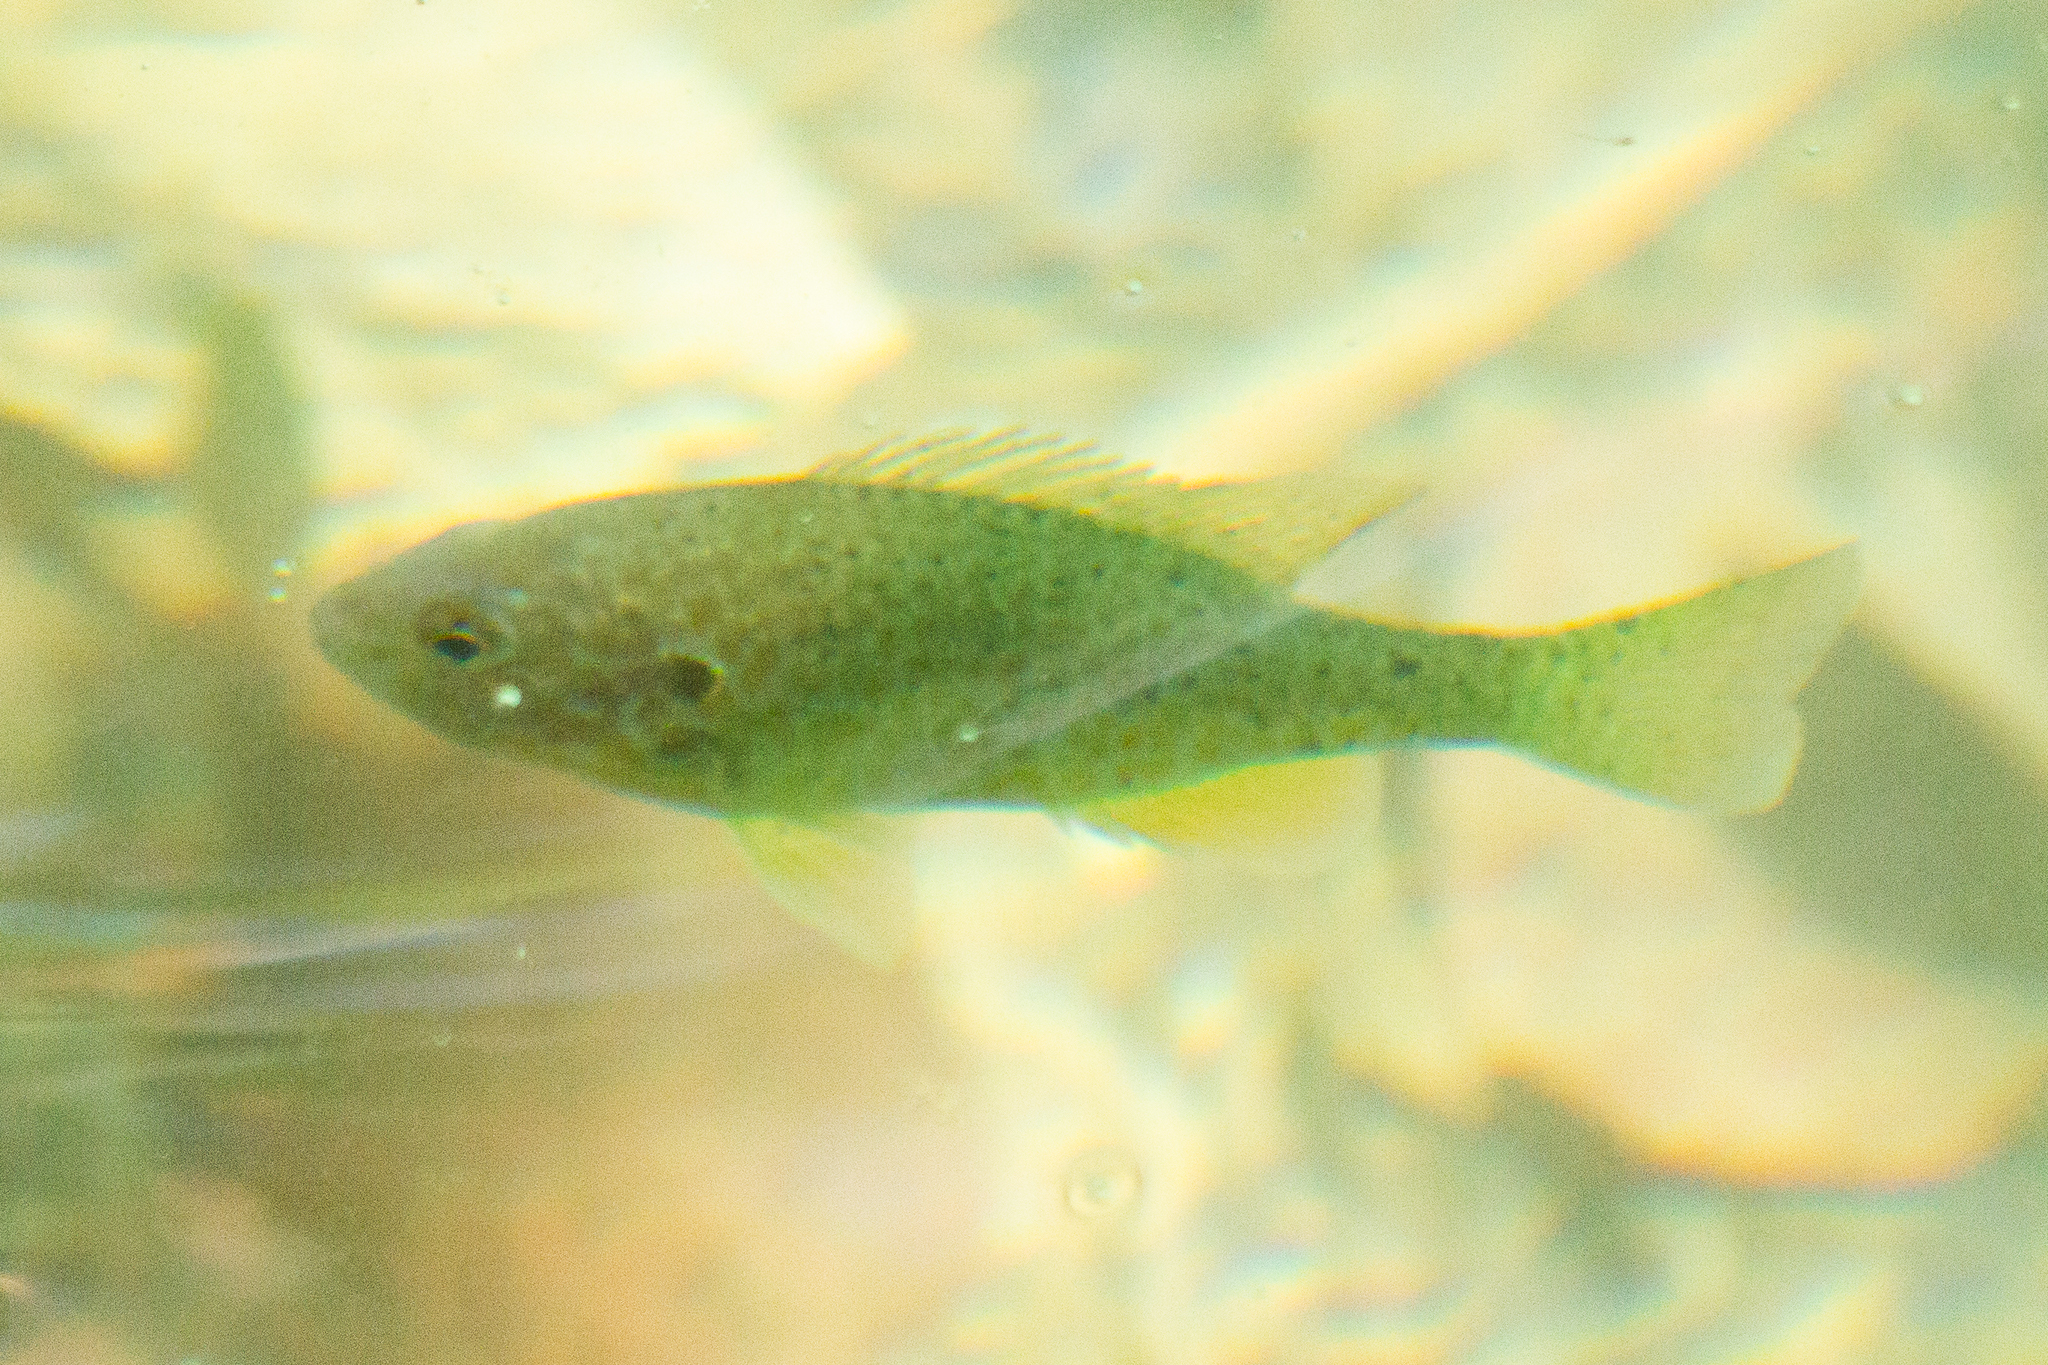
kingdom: Animalia
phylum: Chordata
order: Perciformes
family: Centrarchidae
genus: Lepomis
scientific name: Lepomis gibbosus
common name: Pumpkinseed
